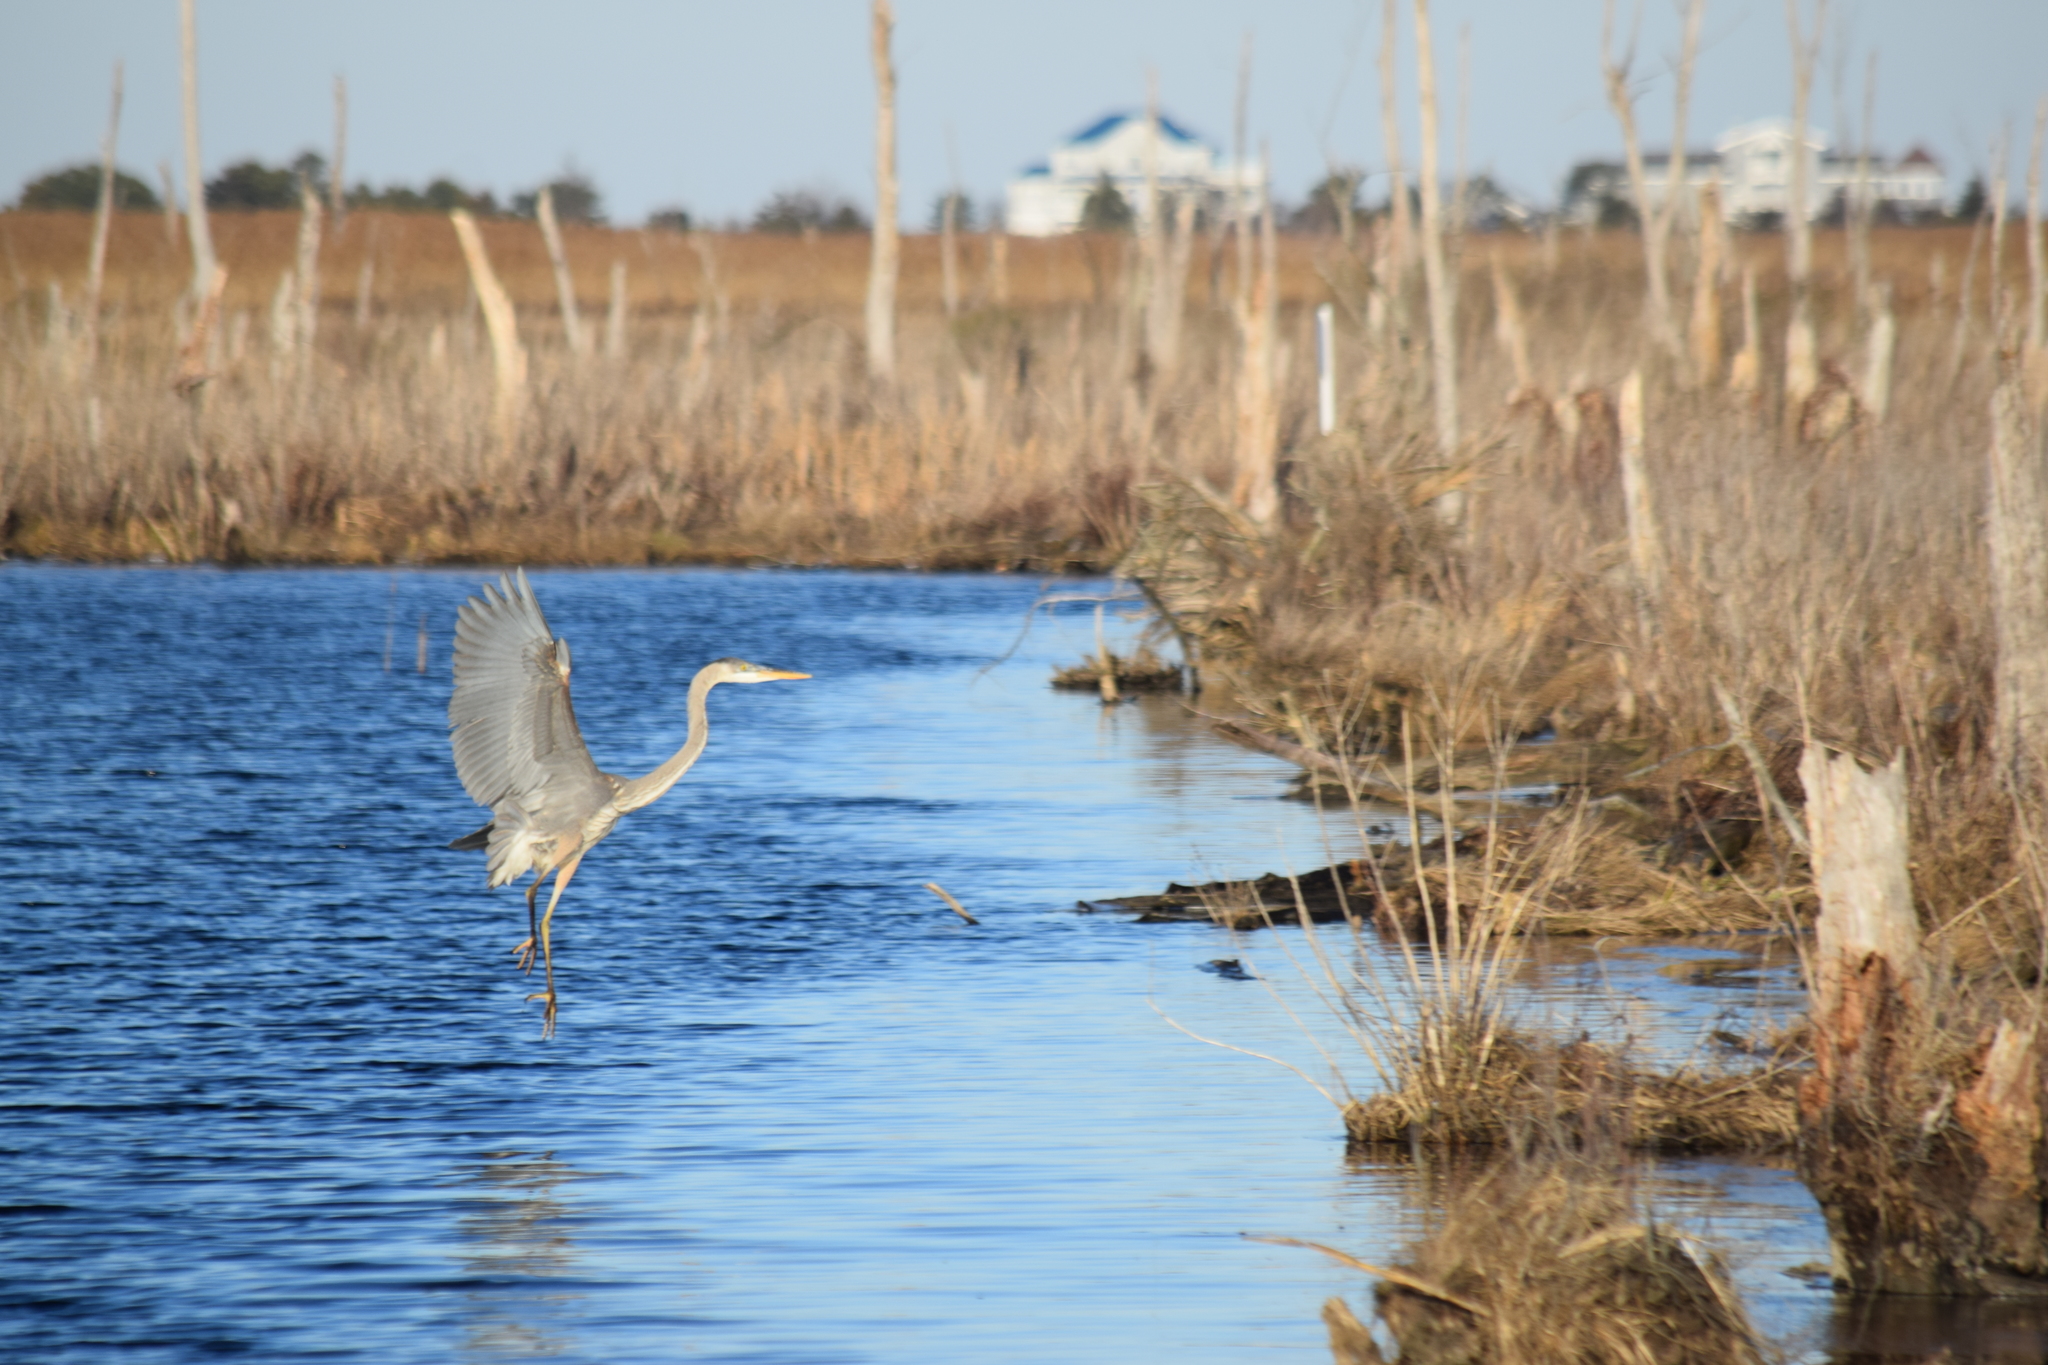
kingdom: Animalia
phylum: Chordata
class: Aves
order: Pelecaniformes
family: Ardeidae
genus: Ardea
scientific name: Ardea herodias
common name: Great blue heron
